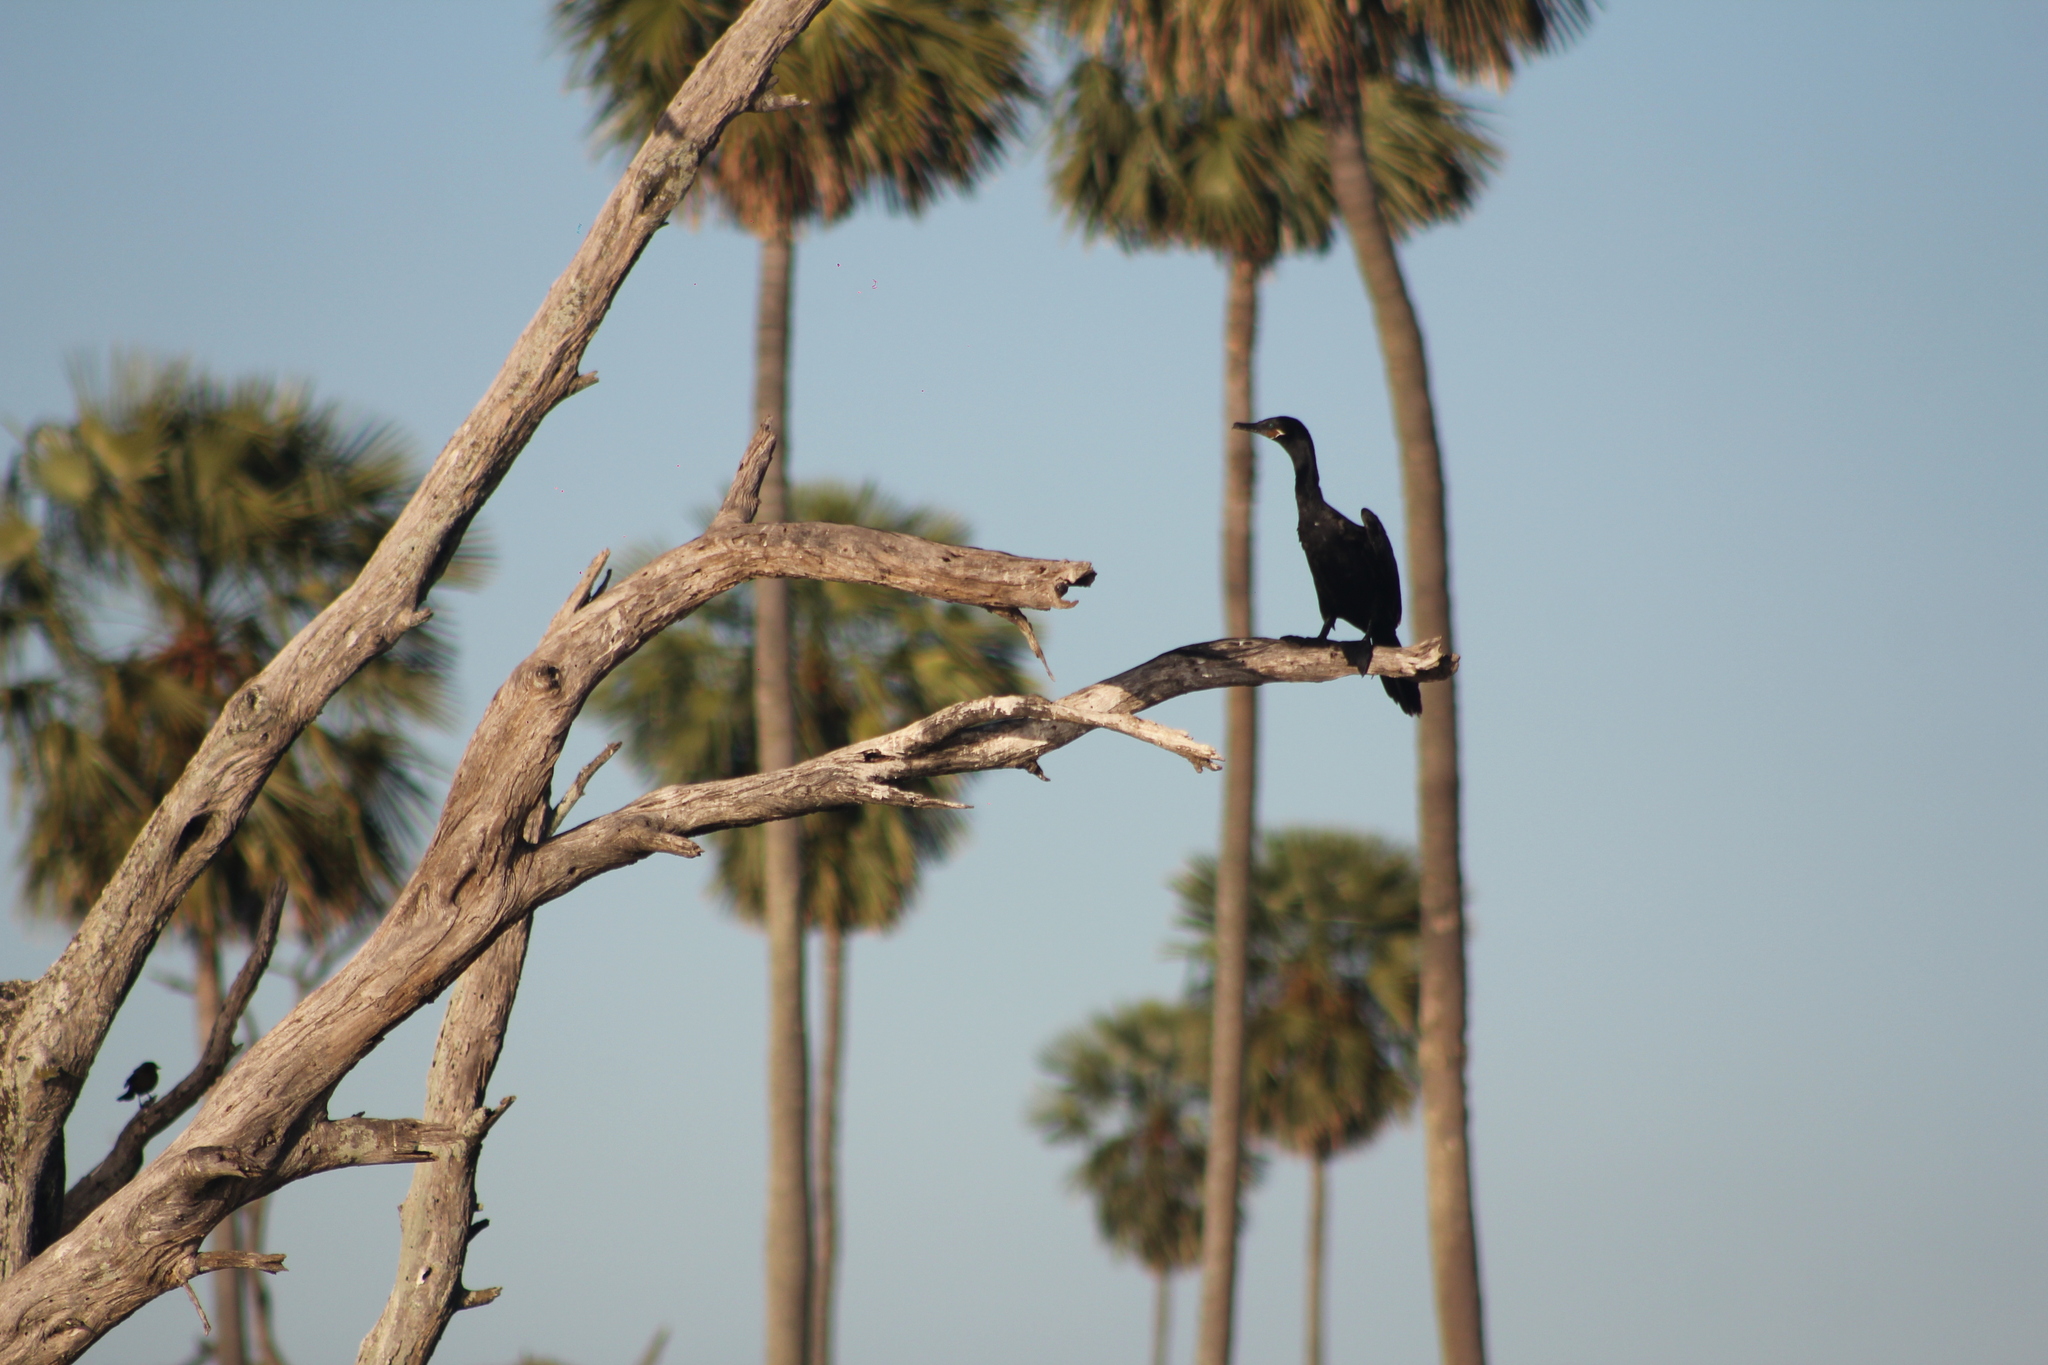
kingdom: Animalia
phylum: Chordata
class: Aves
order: Suliformes
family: Phalacrocoracidae
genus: Phalacrocorax
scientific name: Phalacrocorax brasilianus
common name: Neotropic cormorant
